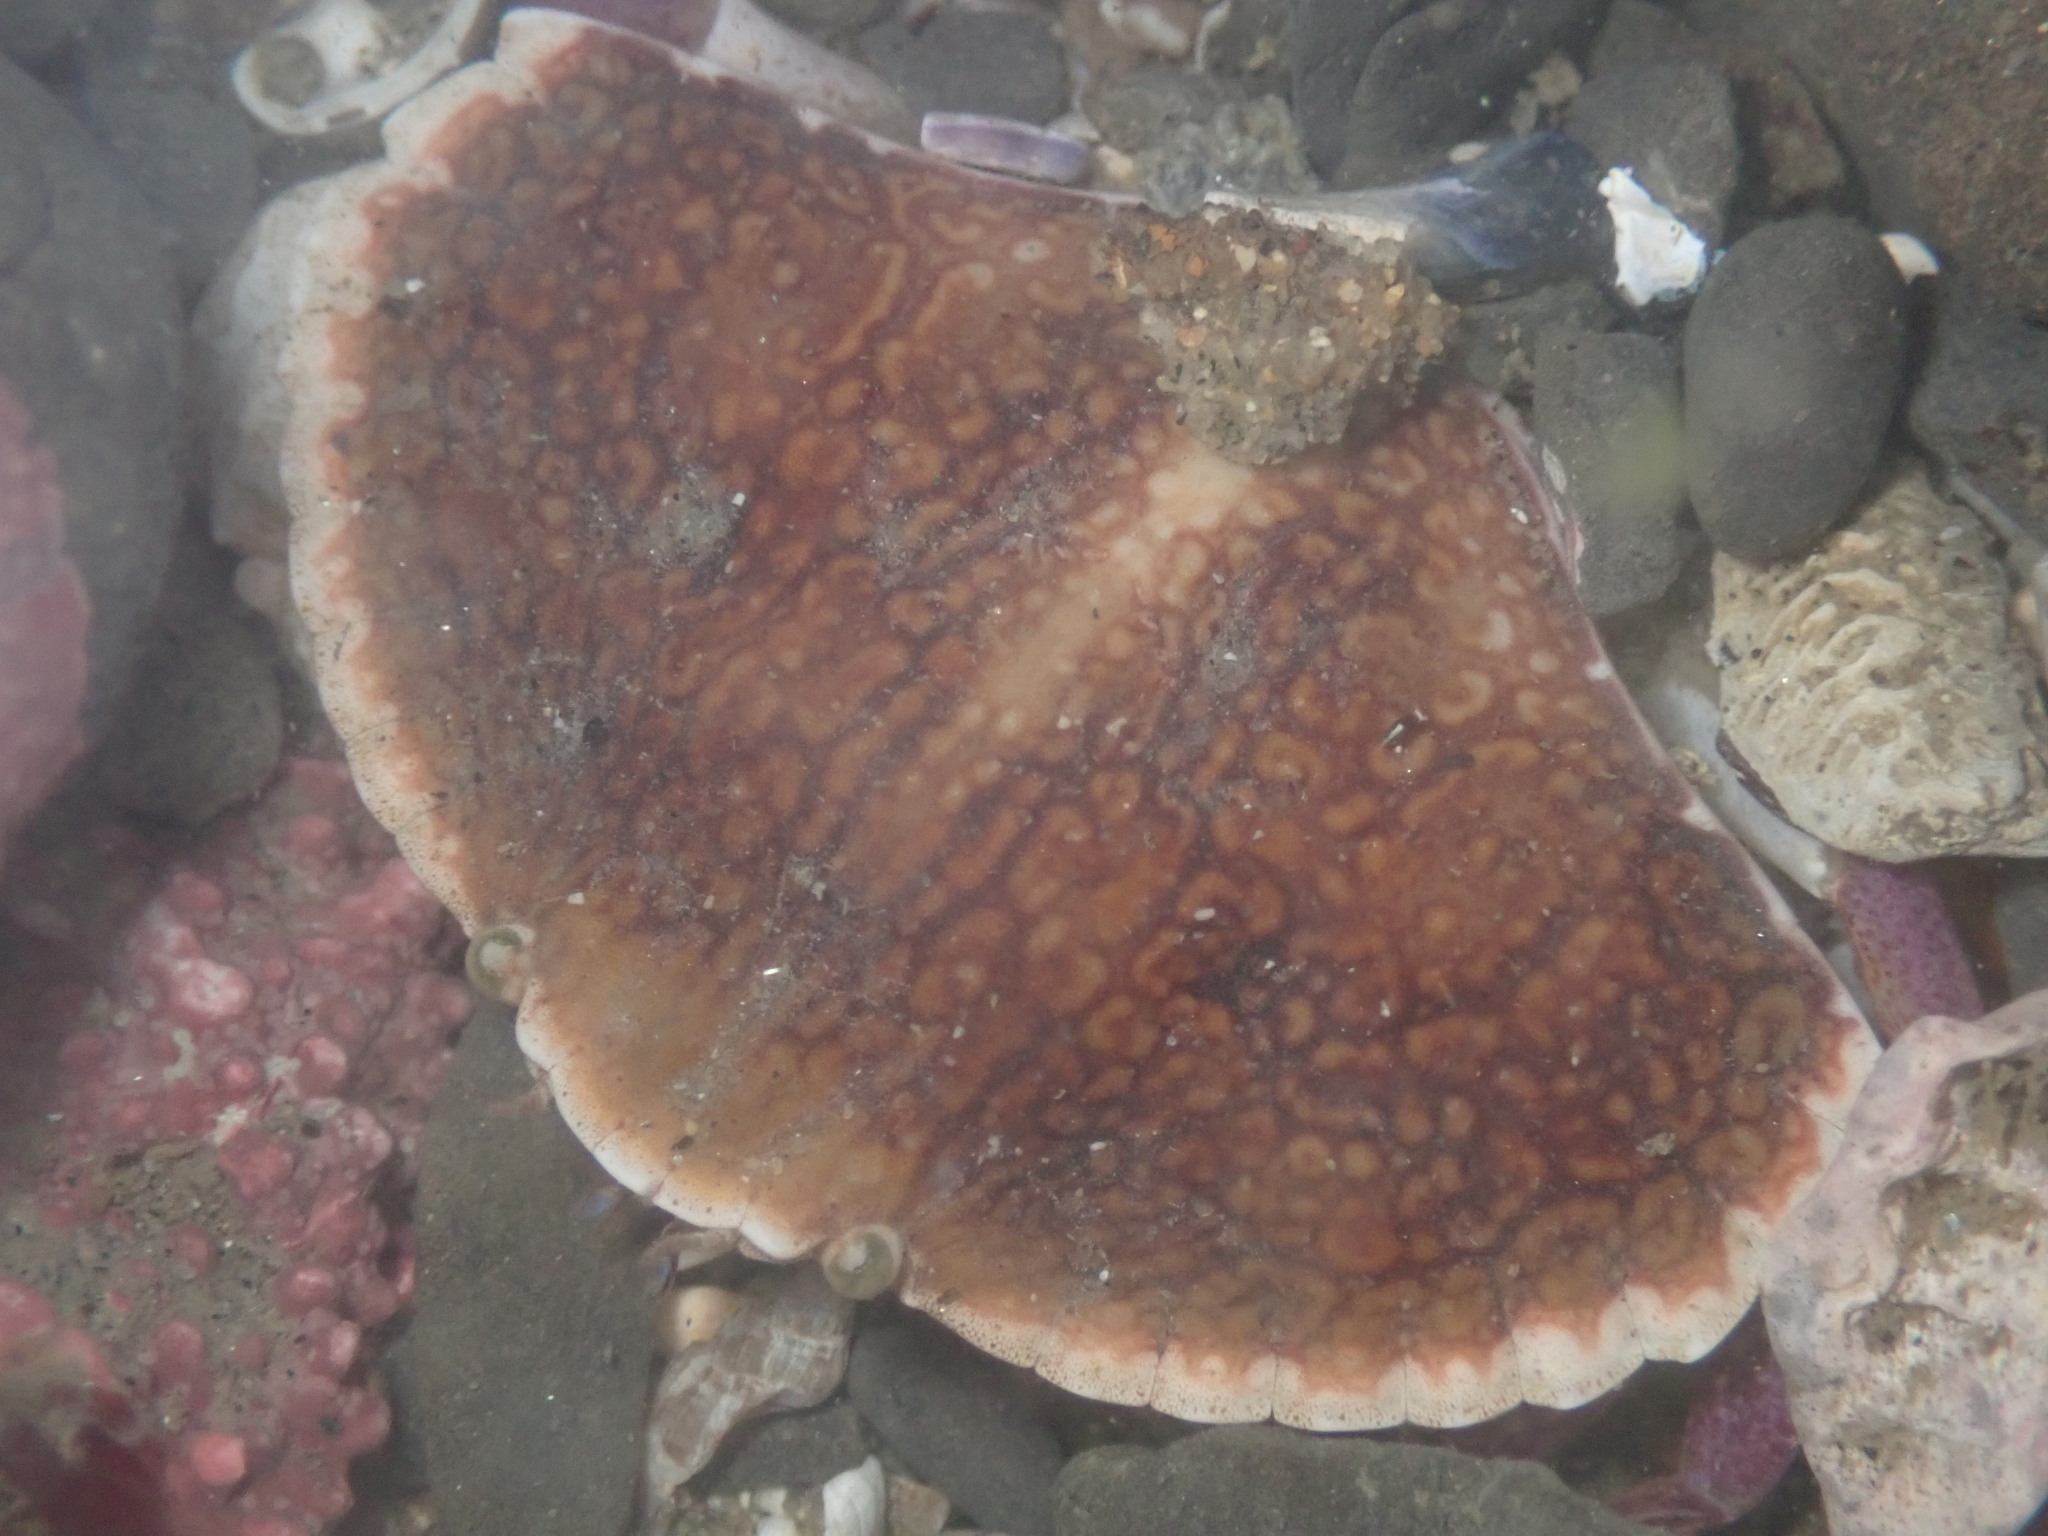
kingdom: Animalia
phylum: Arthropoda
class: Malacostraca
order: Decapoda
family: Cancridae
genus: Cancer
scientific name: Cancer productus
